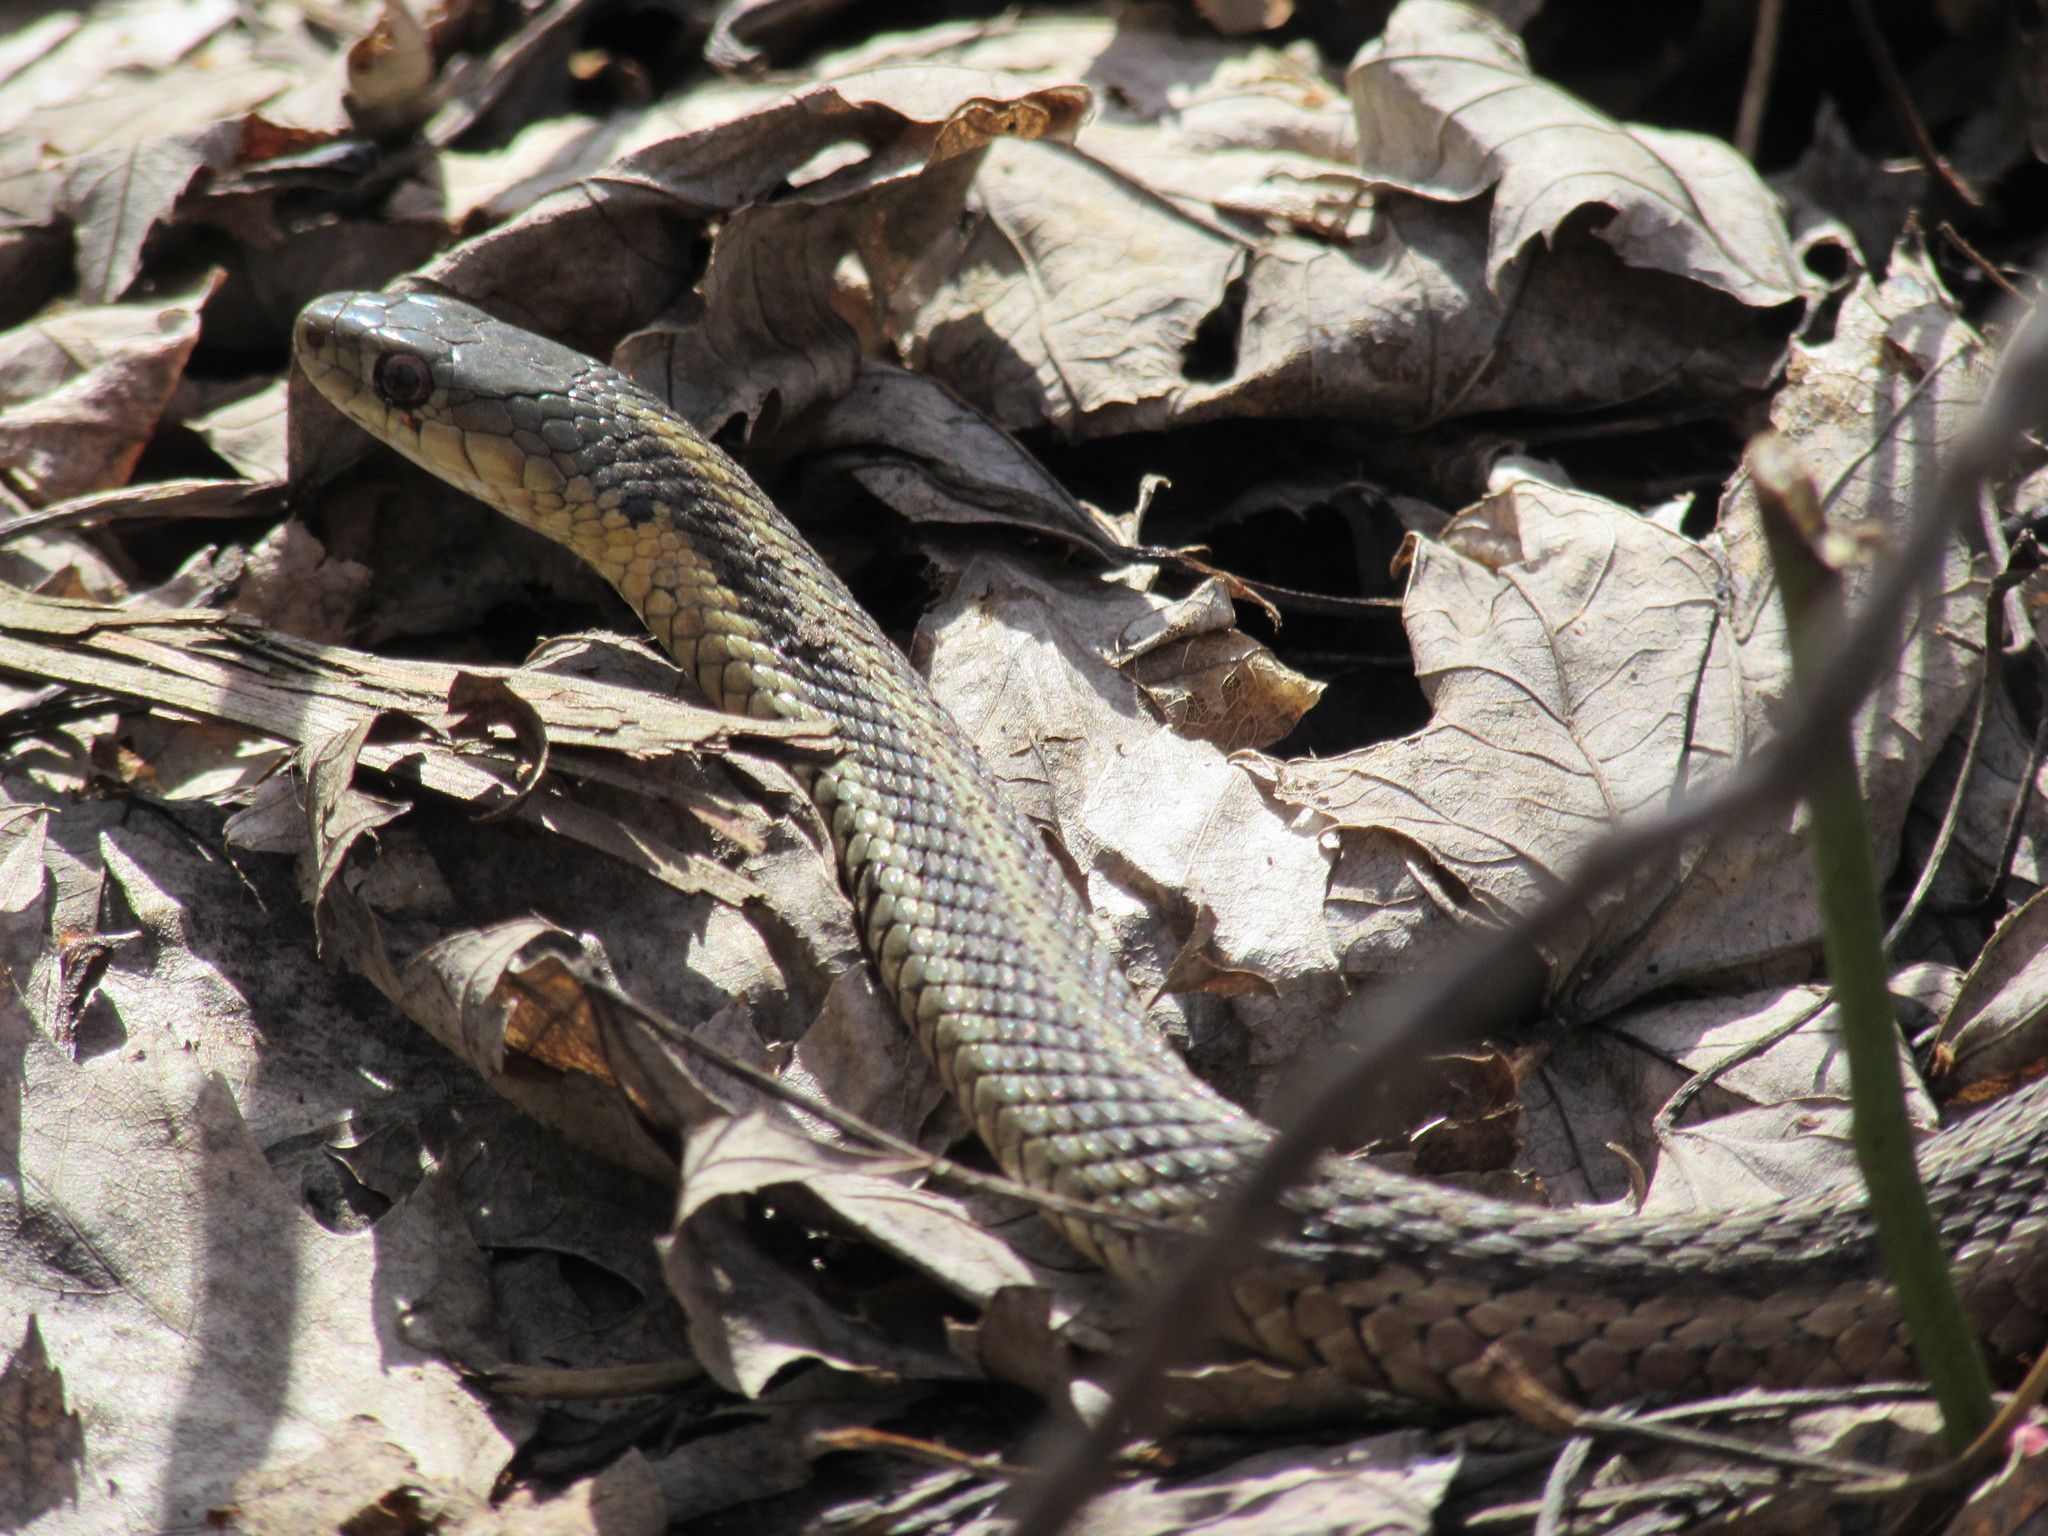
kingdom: Animalia
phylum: Chordata
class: Squamata
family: Colubridae
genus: Thamnophis
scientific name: Thamnophis sirtalis
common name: Common garter snake
